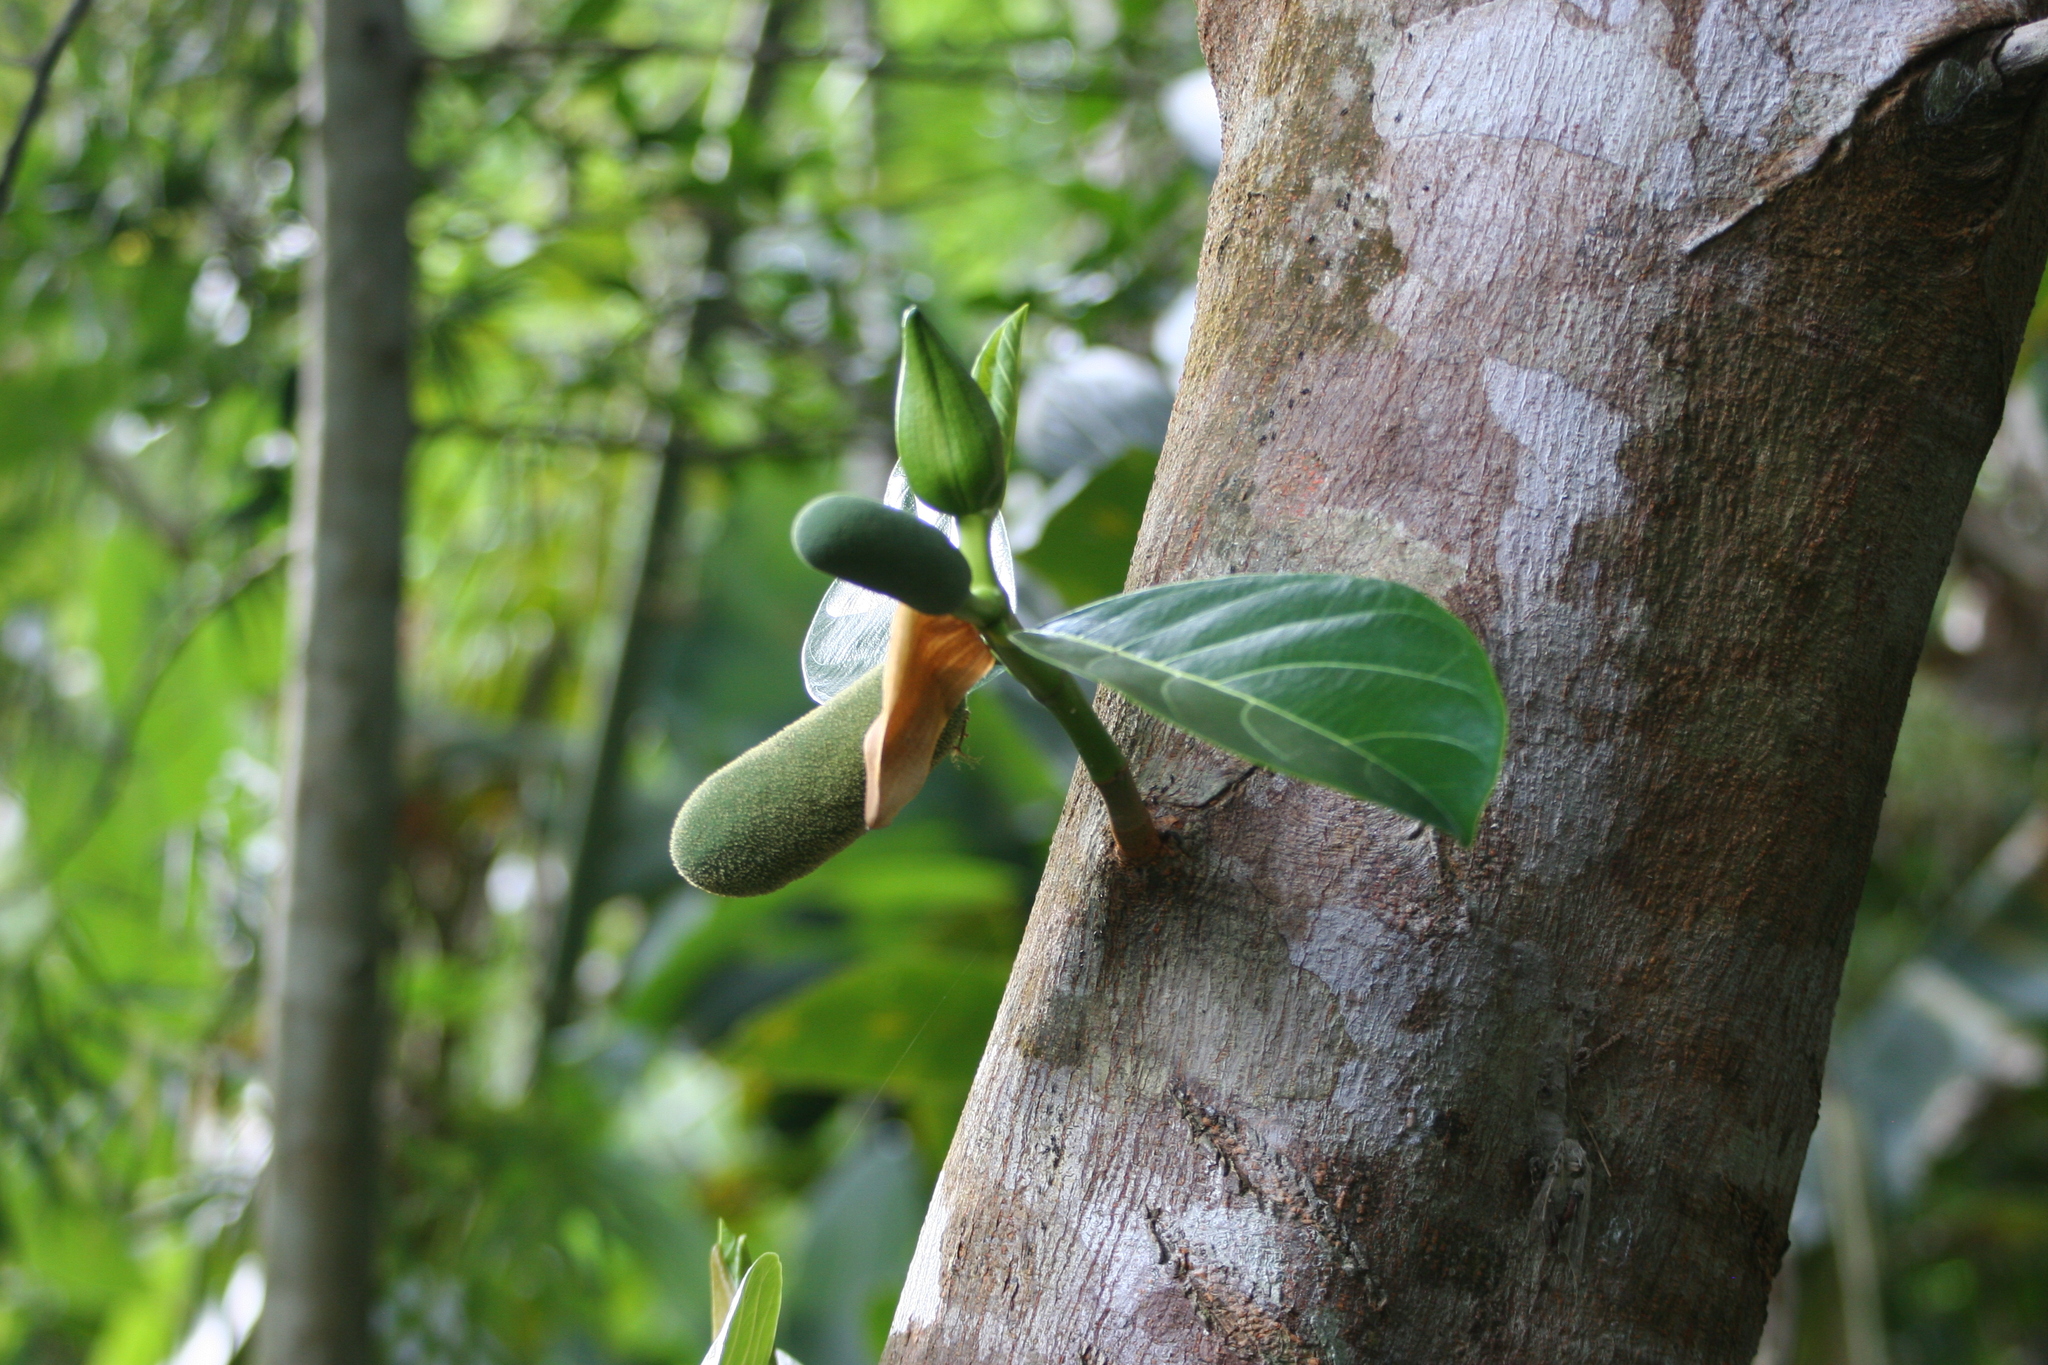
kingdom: Plantae
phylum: Tracheophyta
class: Magnoliopsida
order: Rosales
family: Moraceae
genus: Artocarpus
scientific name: Artocarpus heterophyllus
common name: Jackfruit
